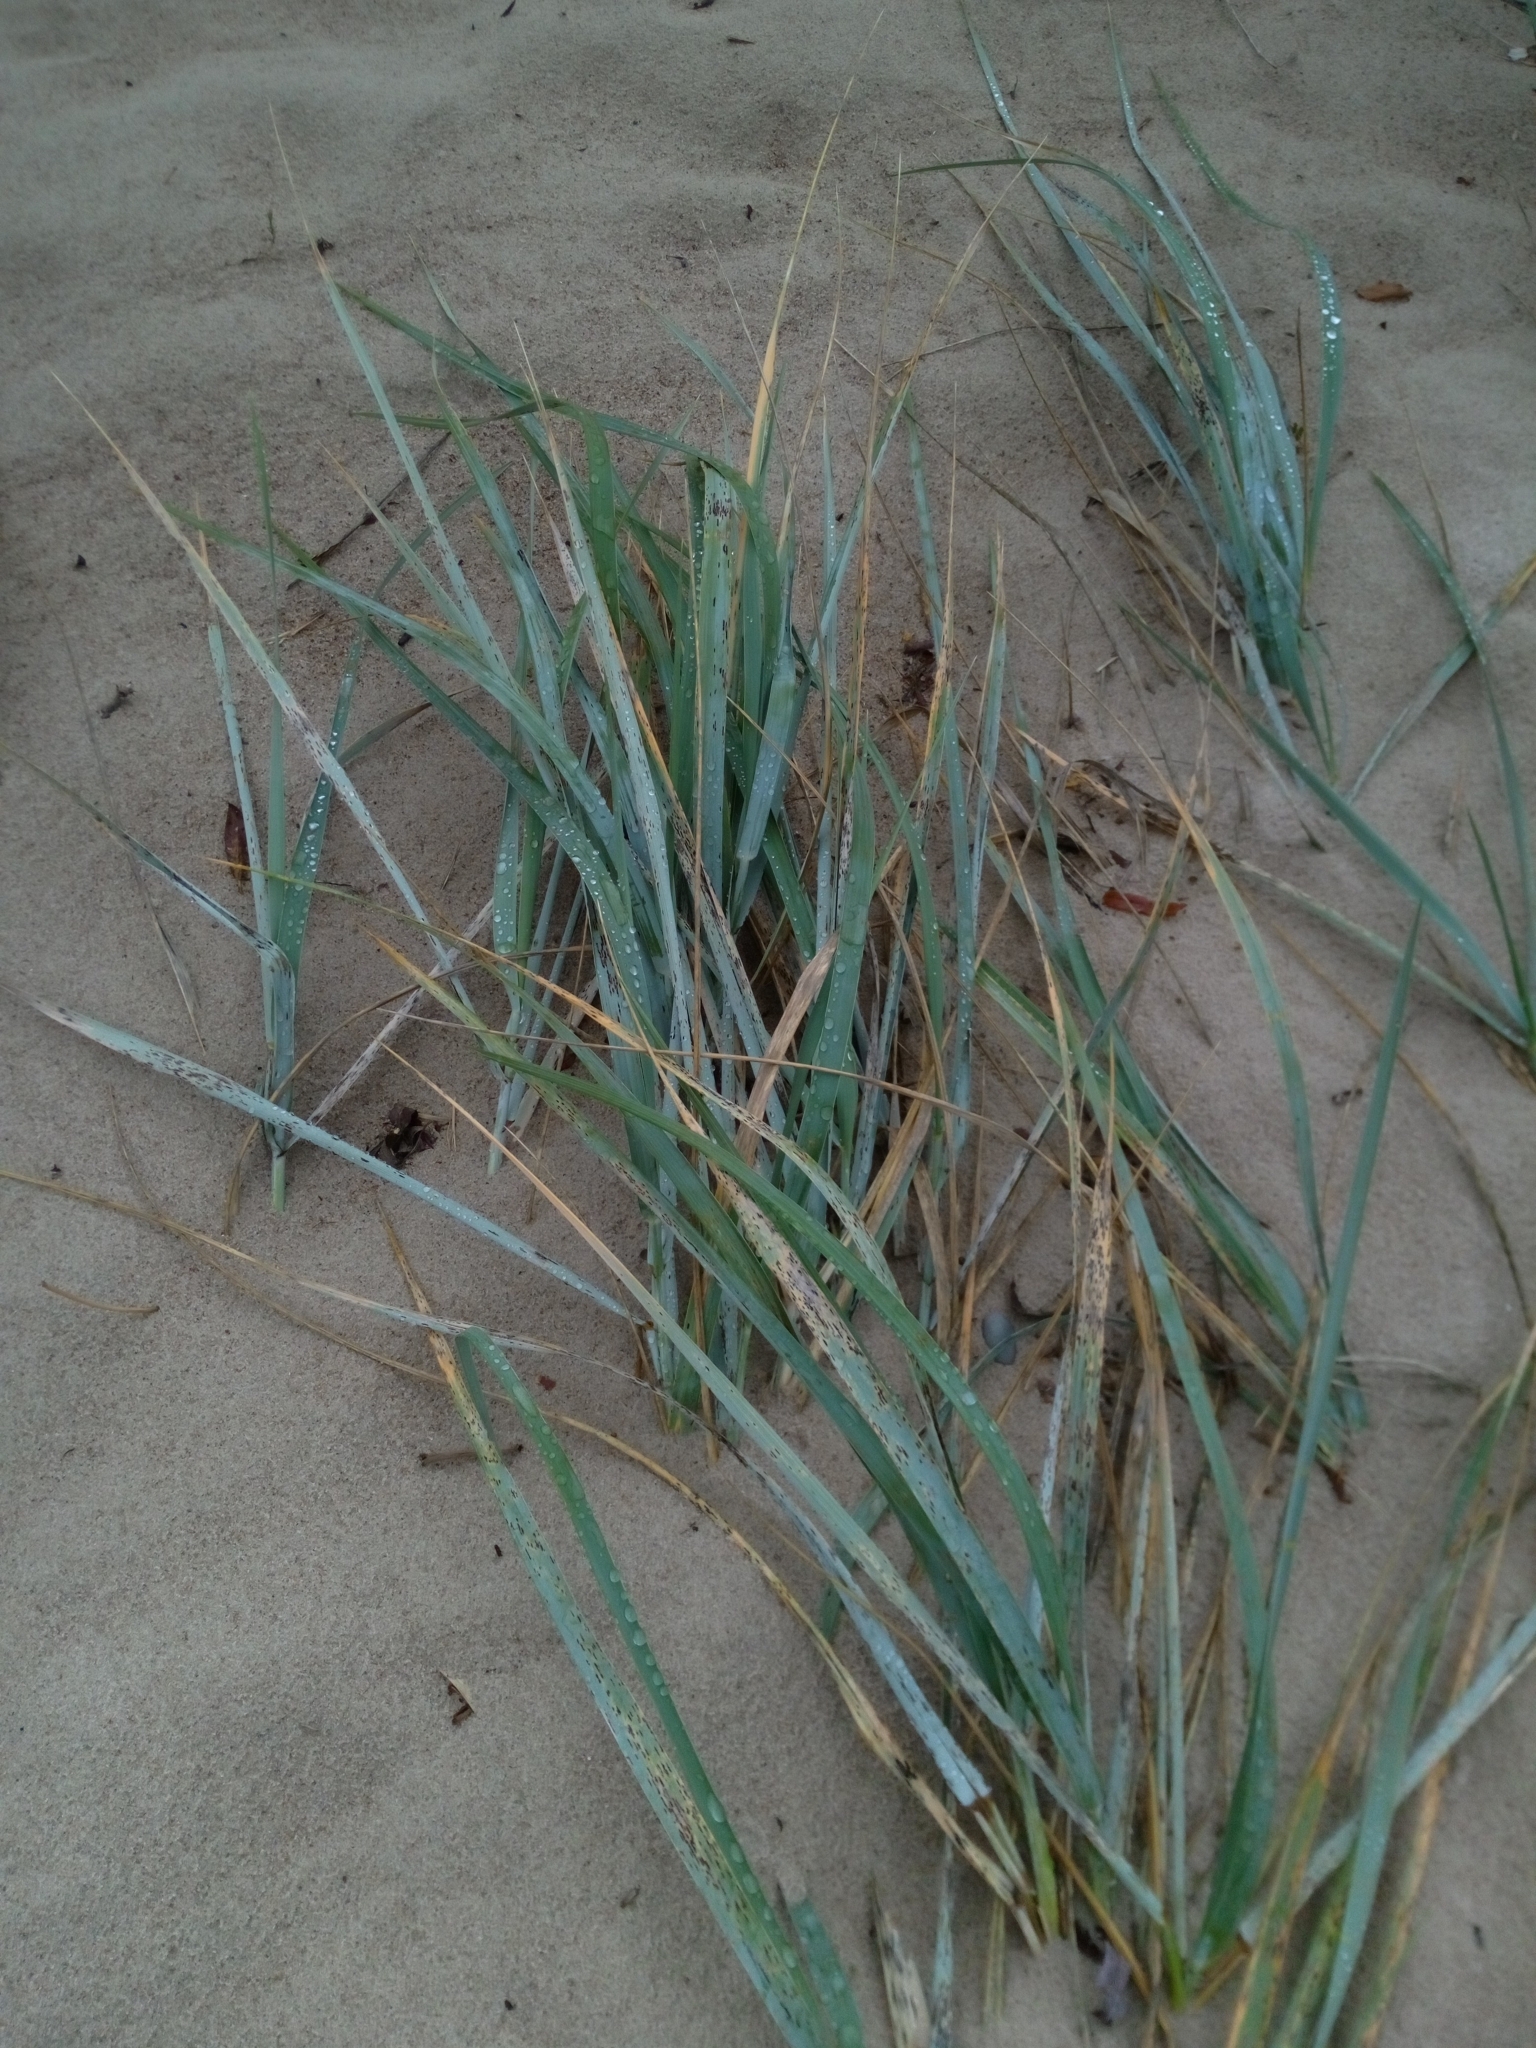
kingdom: Plantae
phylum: Tracheophyta
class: Liliopsida
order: Poales
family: Poaceae
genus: Leymus
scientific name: Leymus arenarius
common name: Lyme-grass
